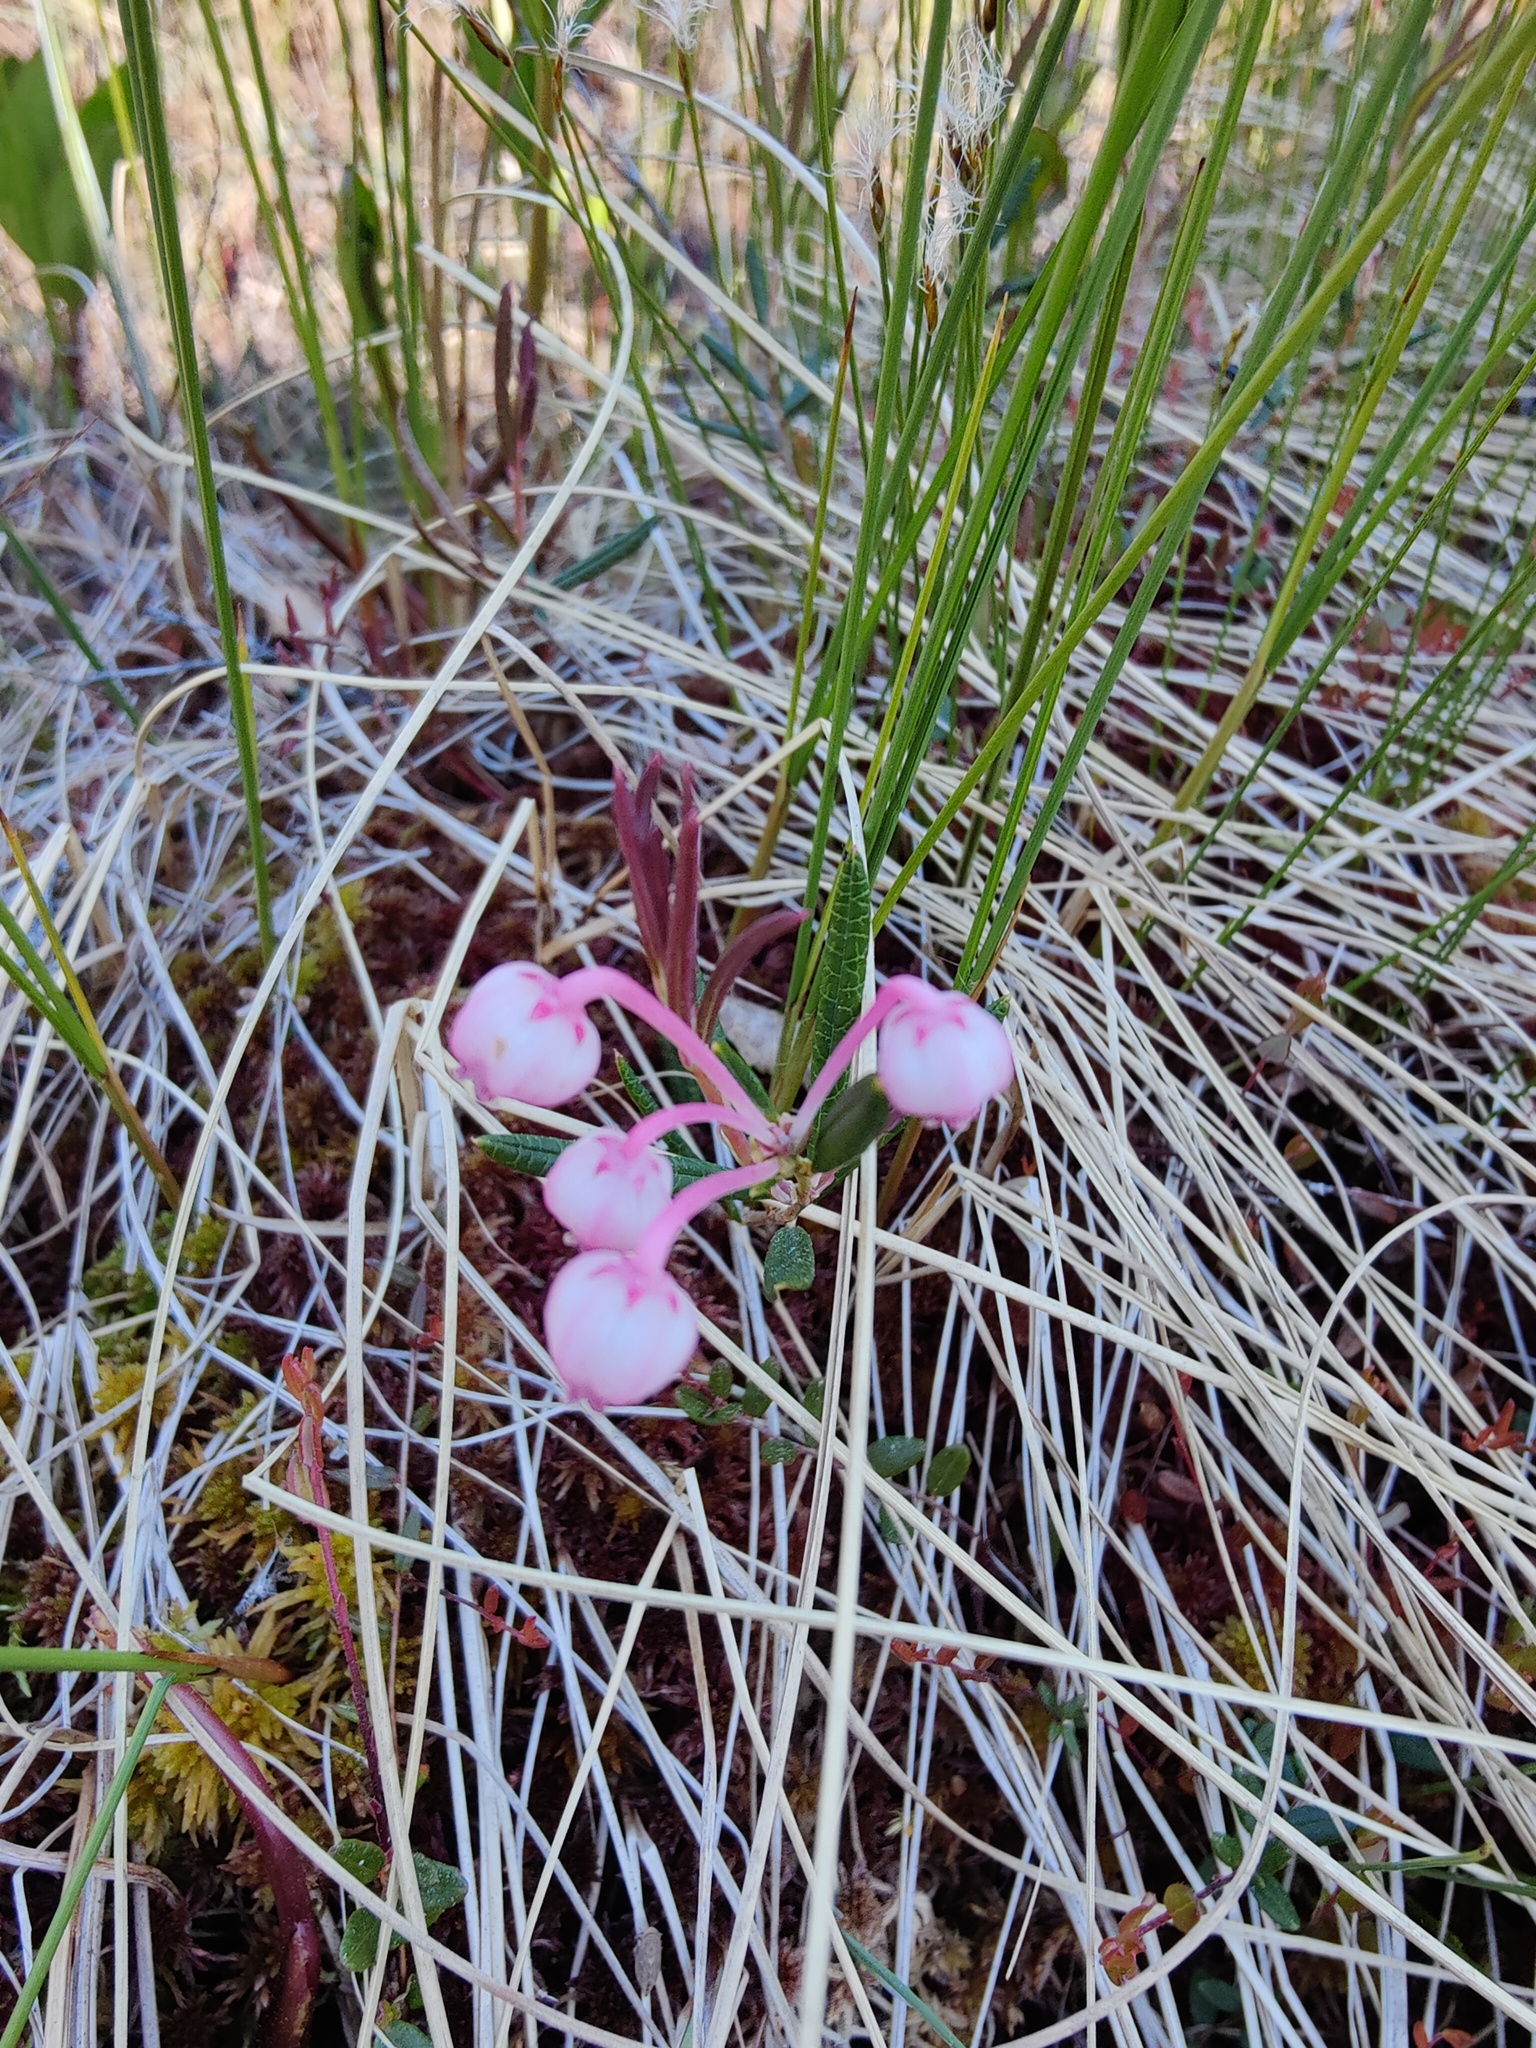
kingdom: Plantae
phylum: Tracheophyta
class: Magnoliopsida
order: Ericales
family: Ericaceae
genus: Andromeda
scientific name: Andromeda polifolia
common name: Bog-rosemary
